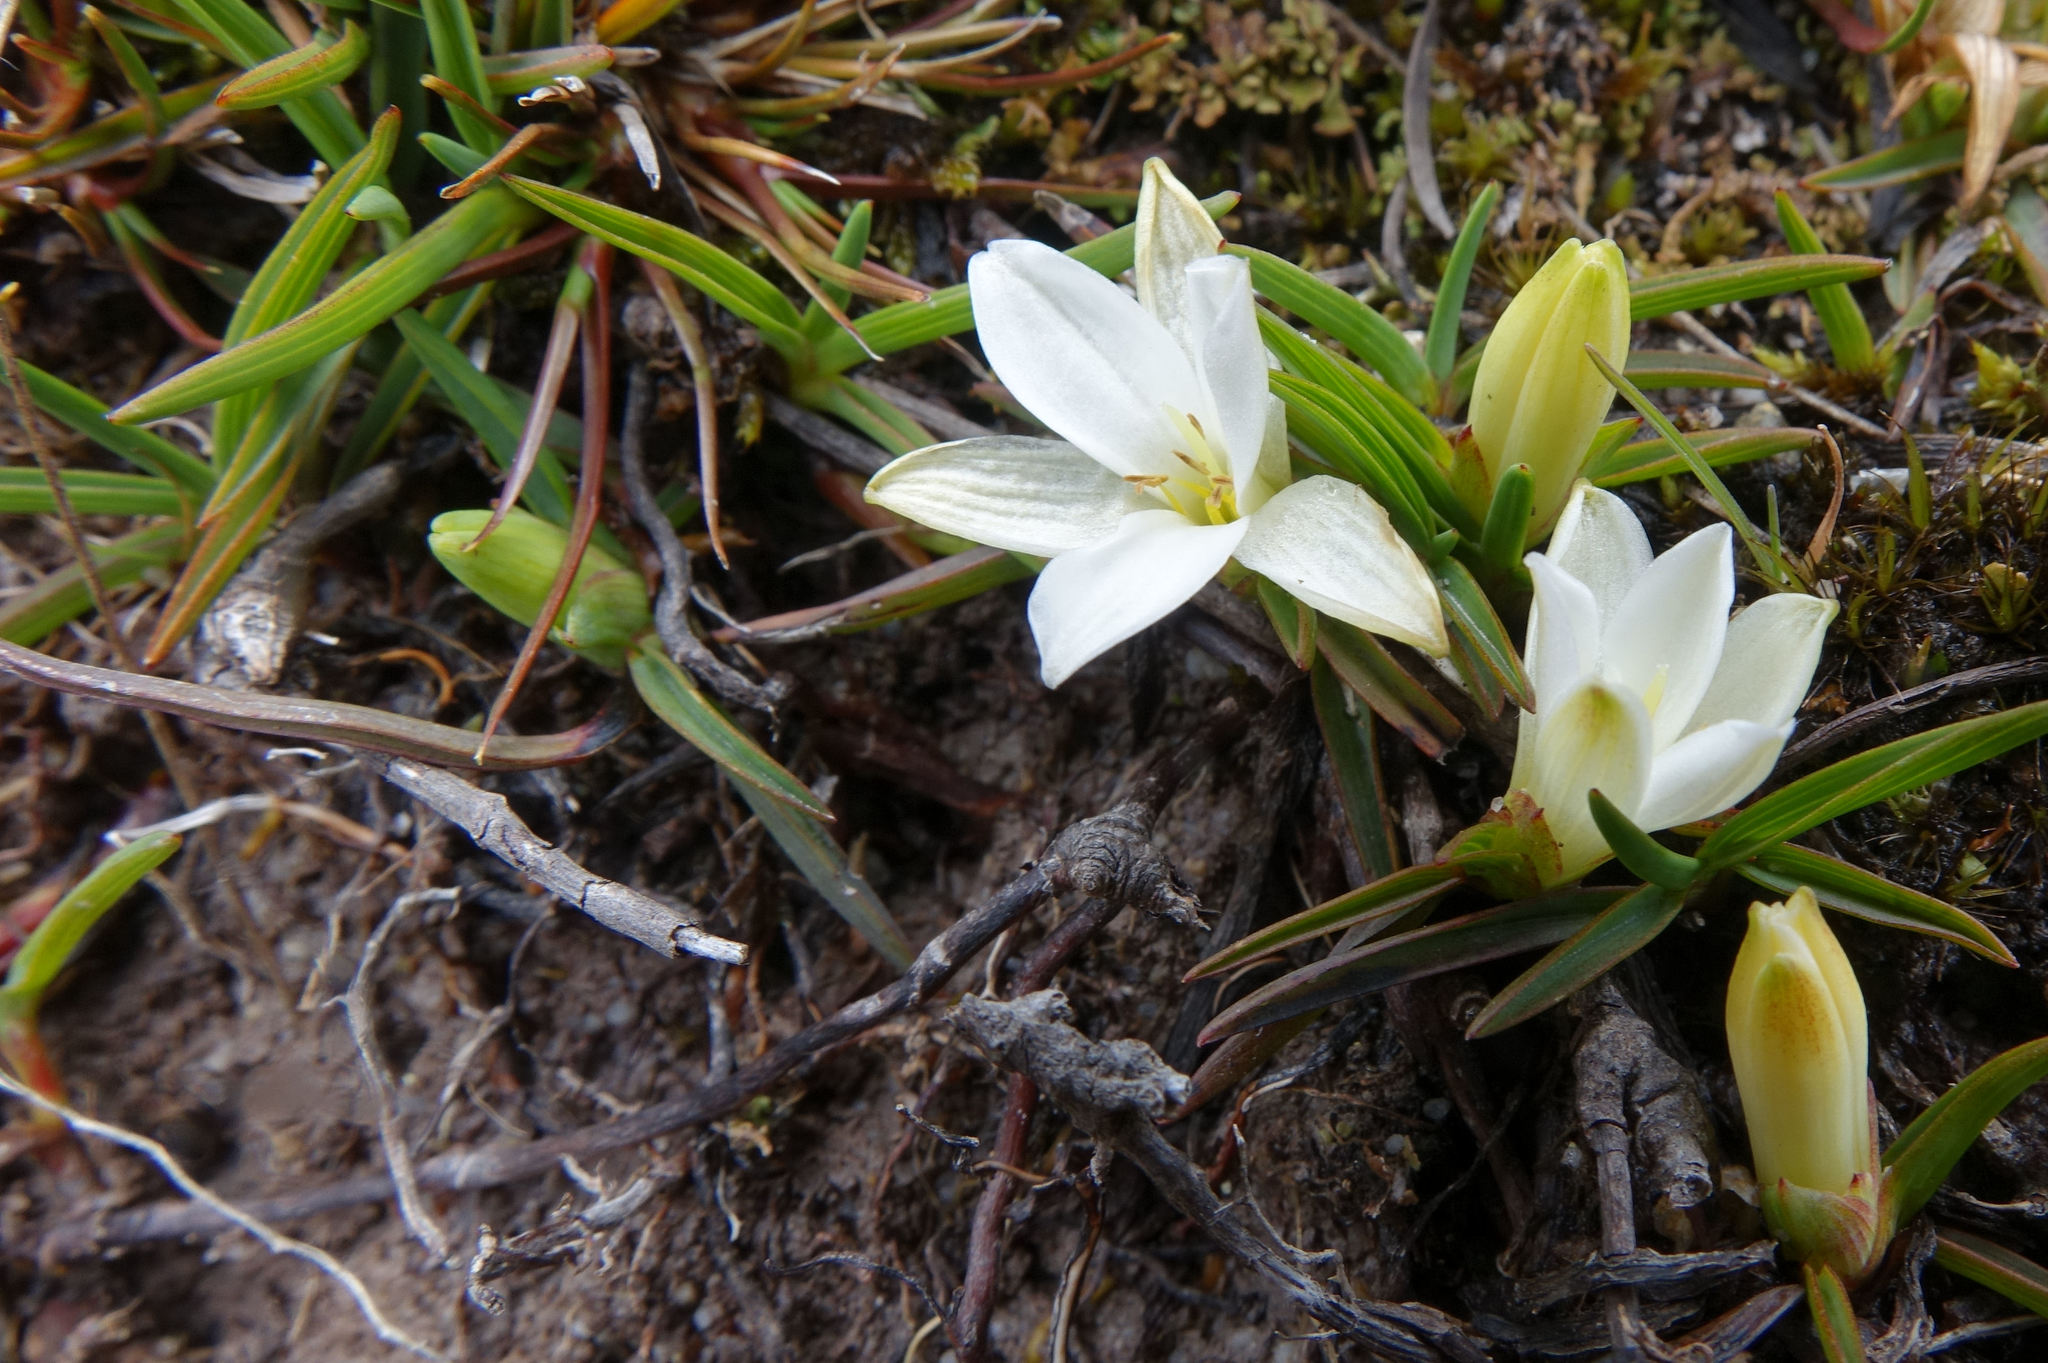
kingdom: Plantae
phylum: Tracheophyta
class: Liliopsida
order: Asparagales
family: Asphodelaceae
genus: Herpolirion
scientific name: Herpolirion novae-zelandiae
